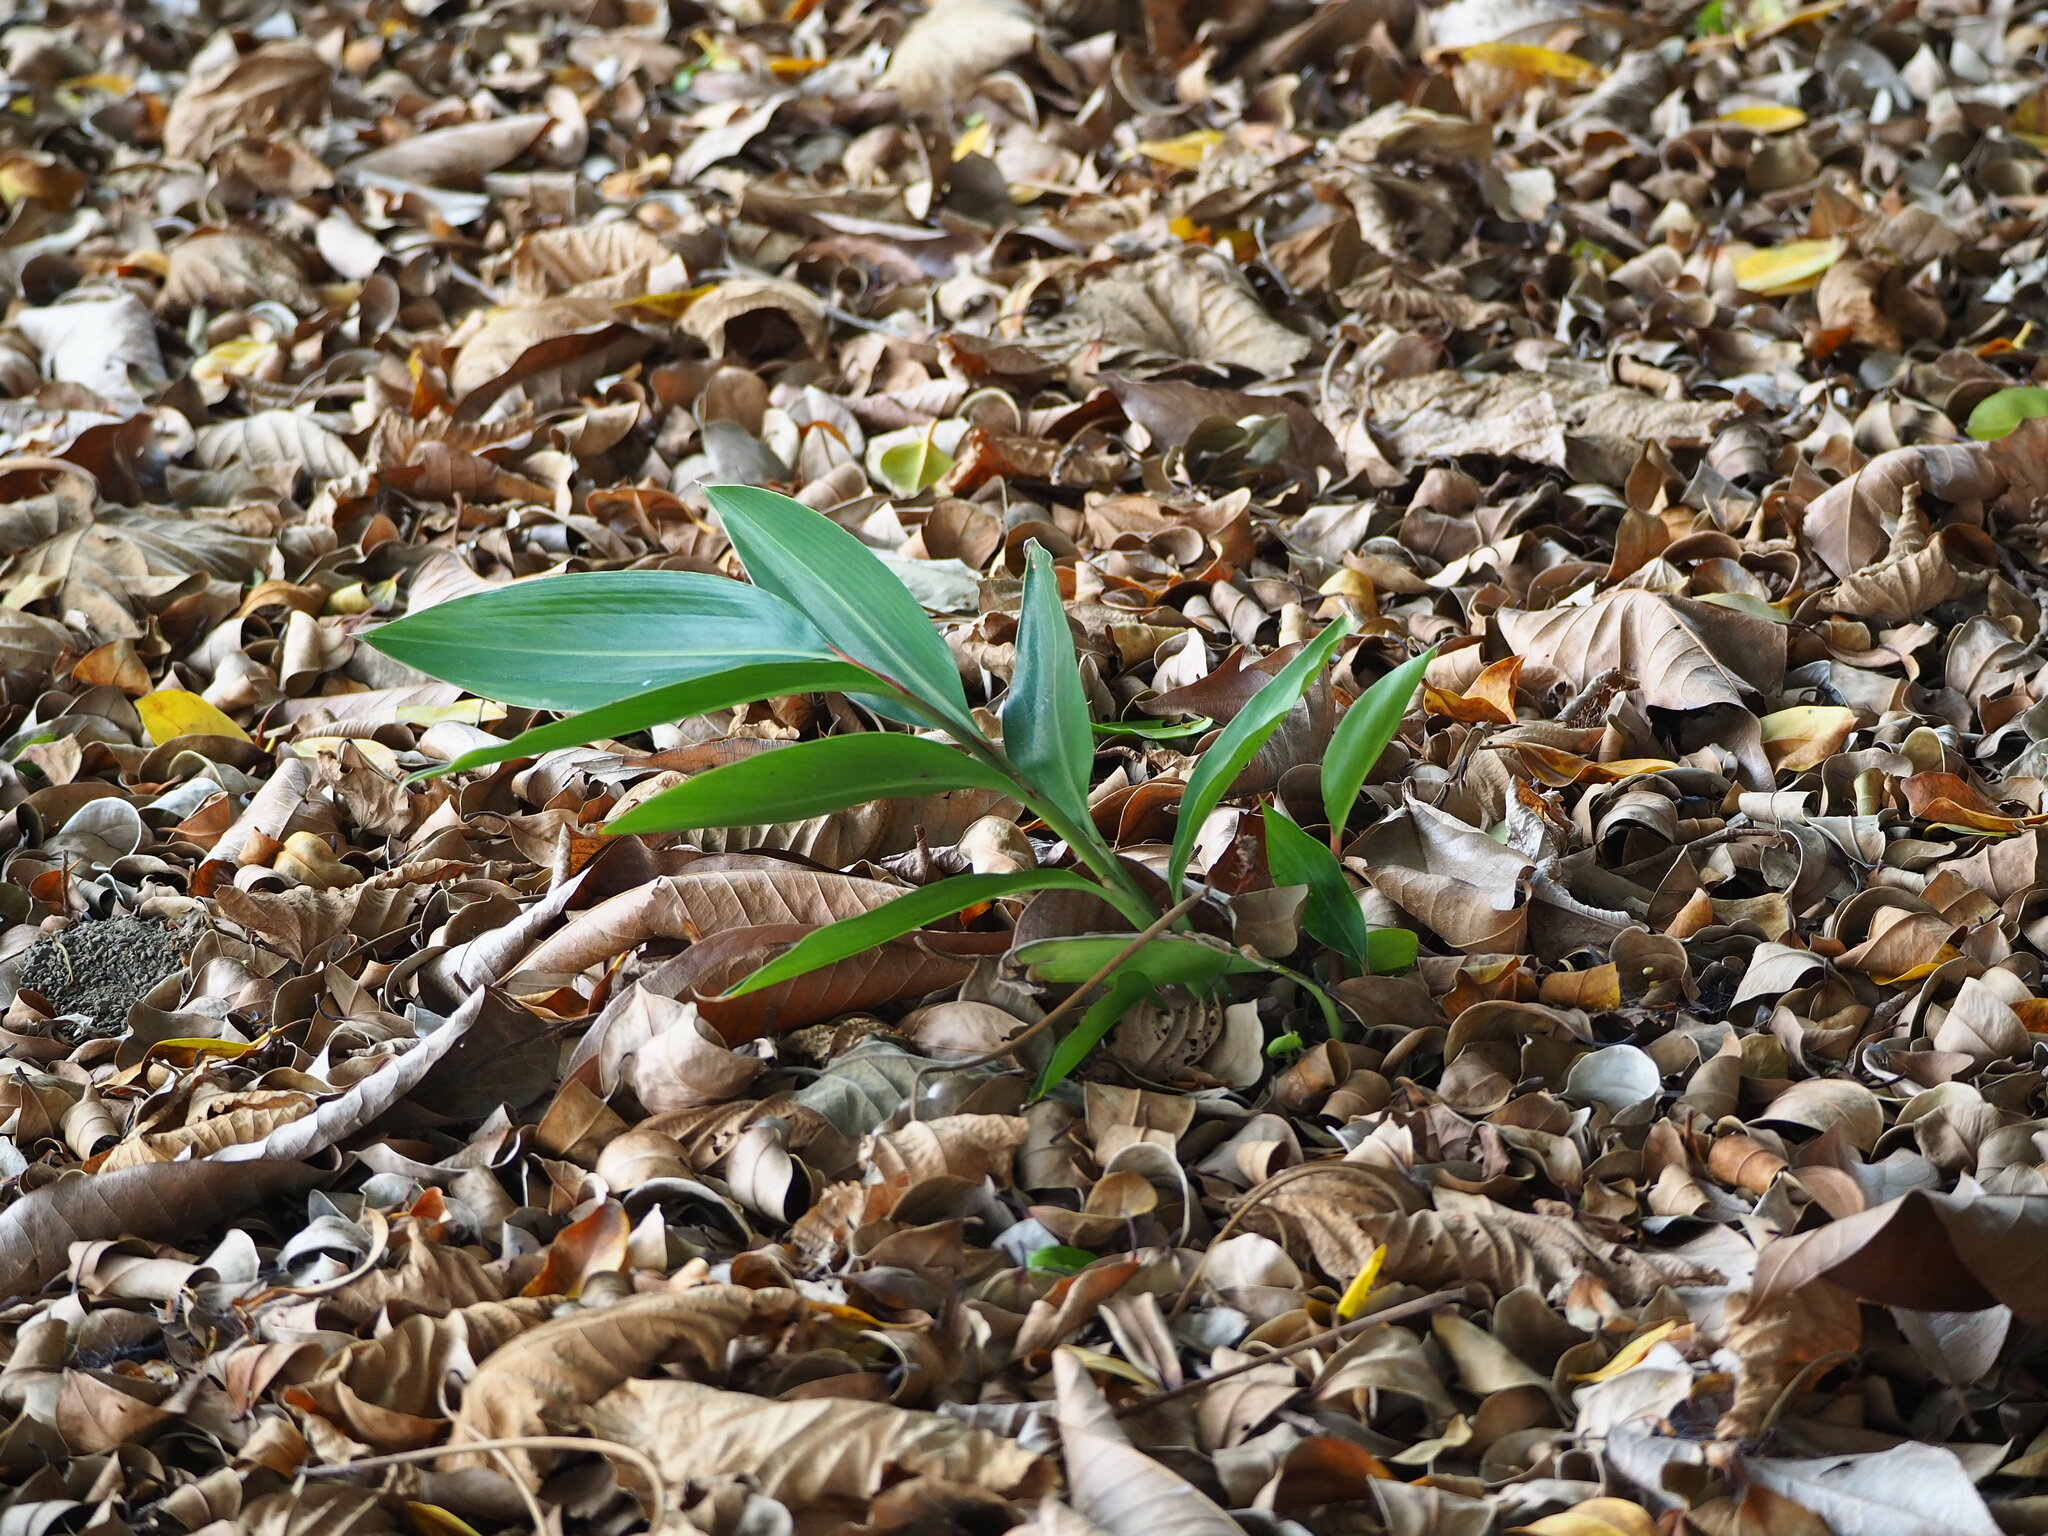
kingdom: Plantae
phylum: Tracheophyta
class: Liliopsida
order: Zingiberales
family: Zingiberaceae
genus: Alpinia
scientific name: Alpinia zerumbet
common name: Shellplant
